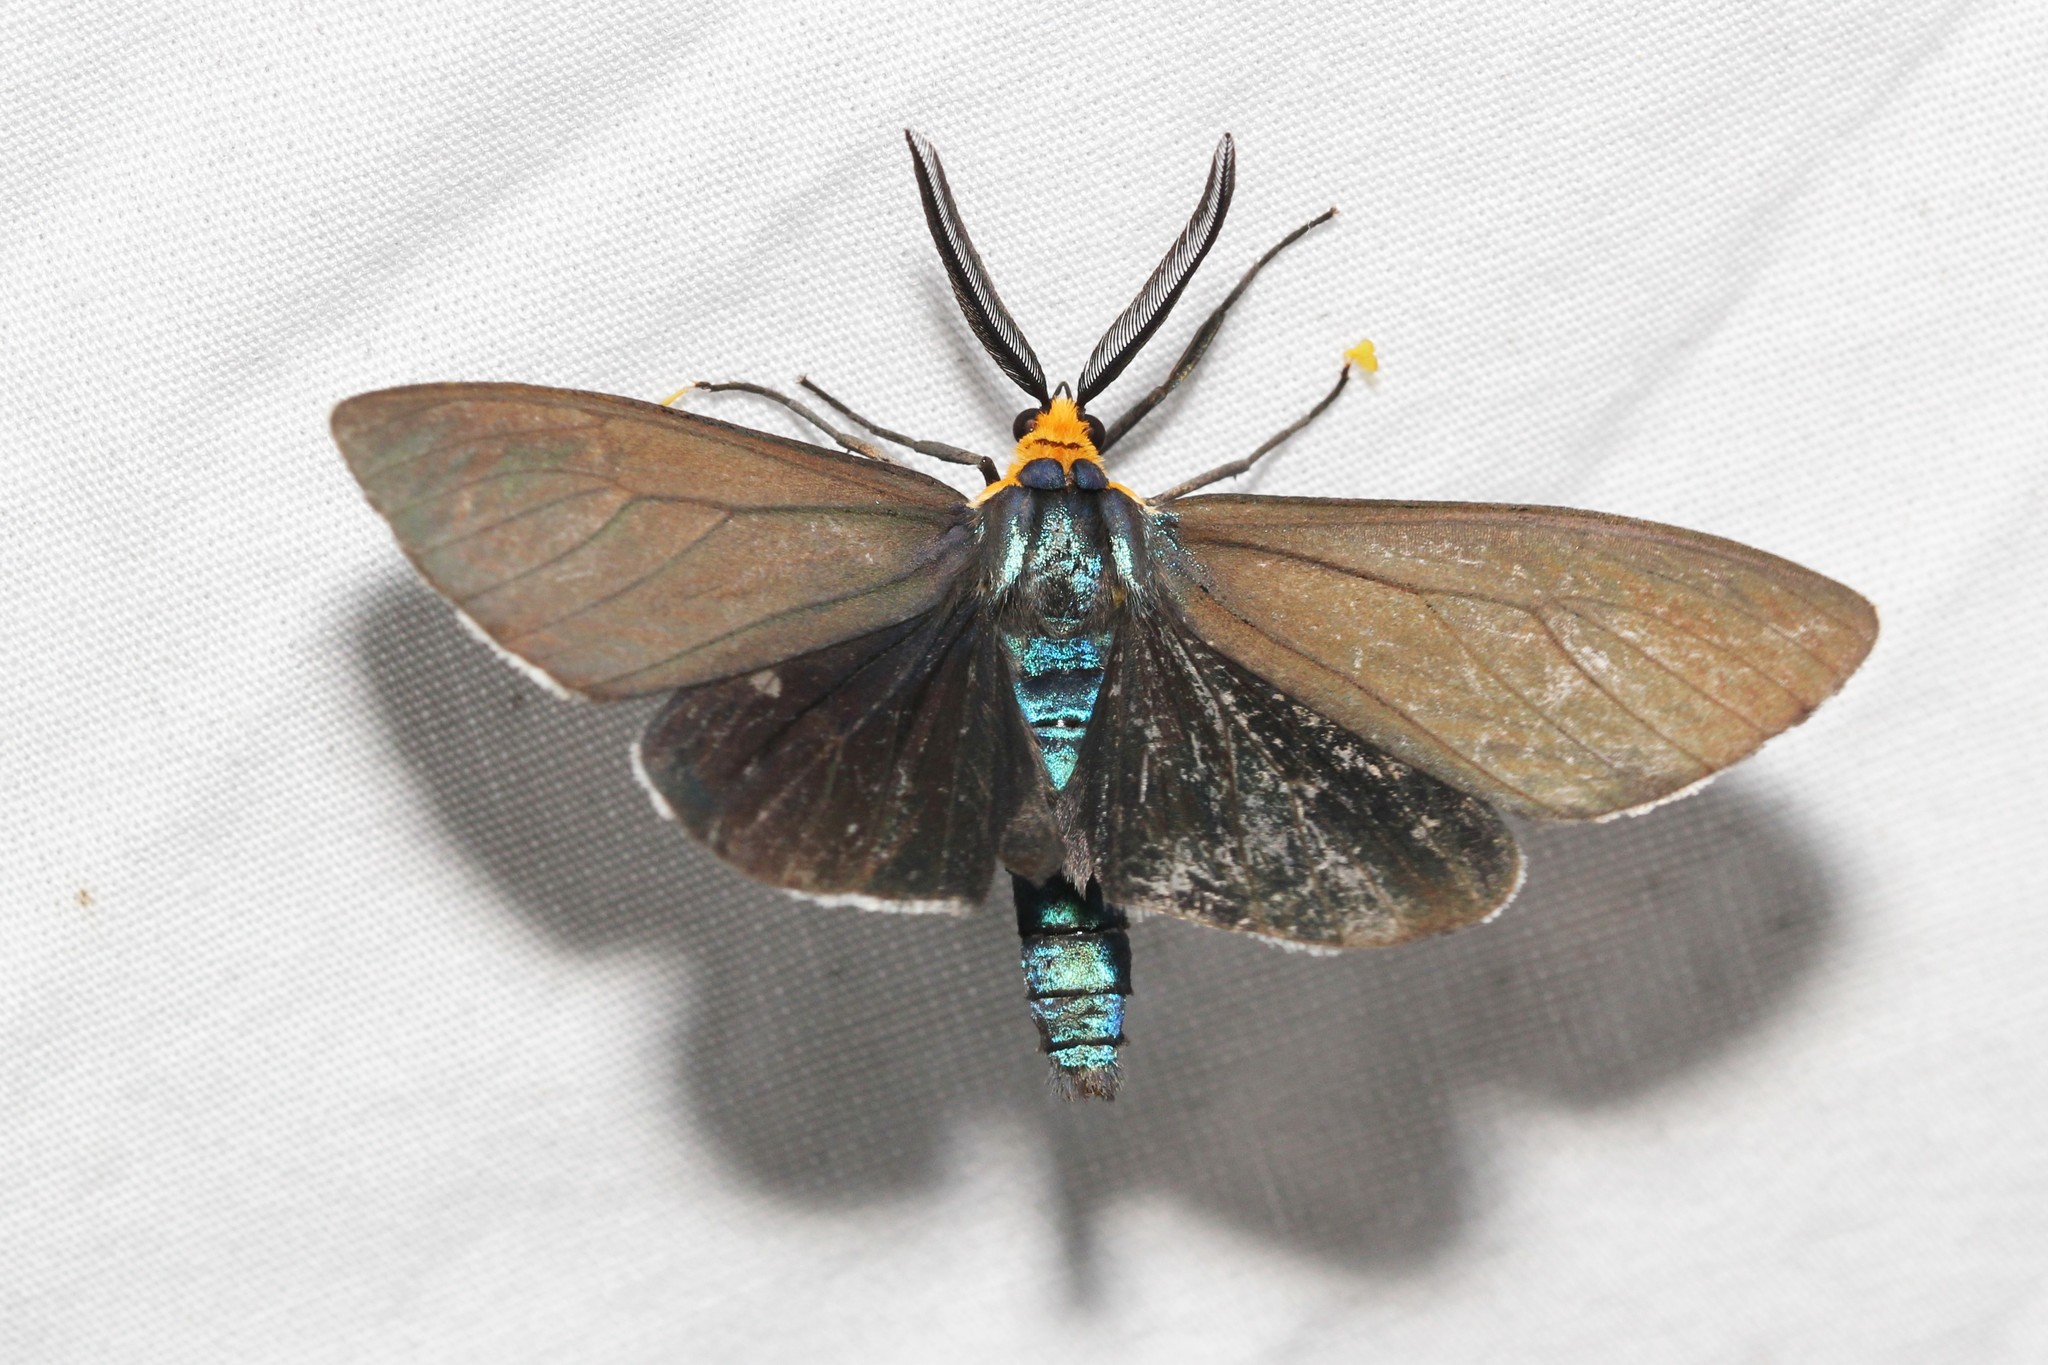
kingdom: Animalia
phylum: Arthropoda
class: Insecta
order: Lepidoptera
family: Erebidae
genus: Ctenucha
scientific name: Ctenucha virginica
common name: Virginia ctenucha moth
